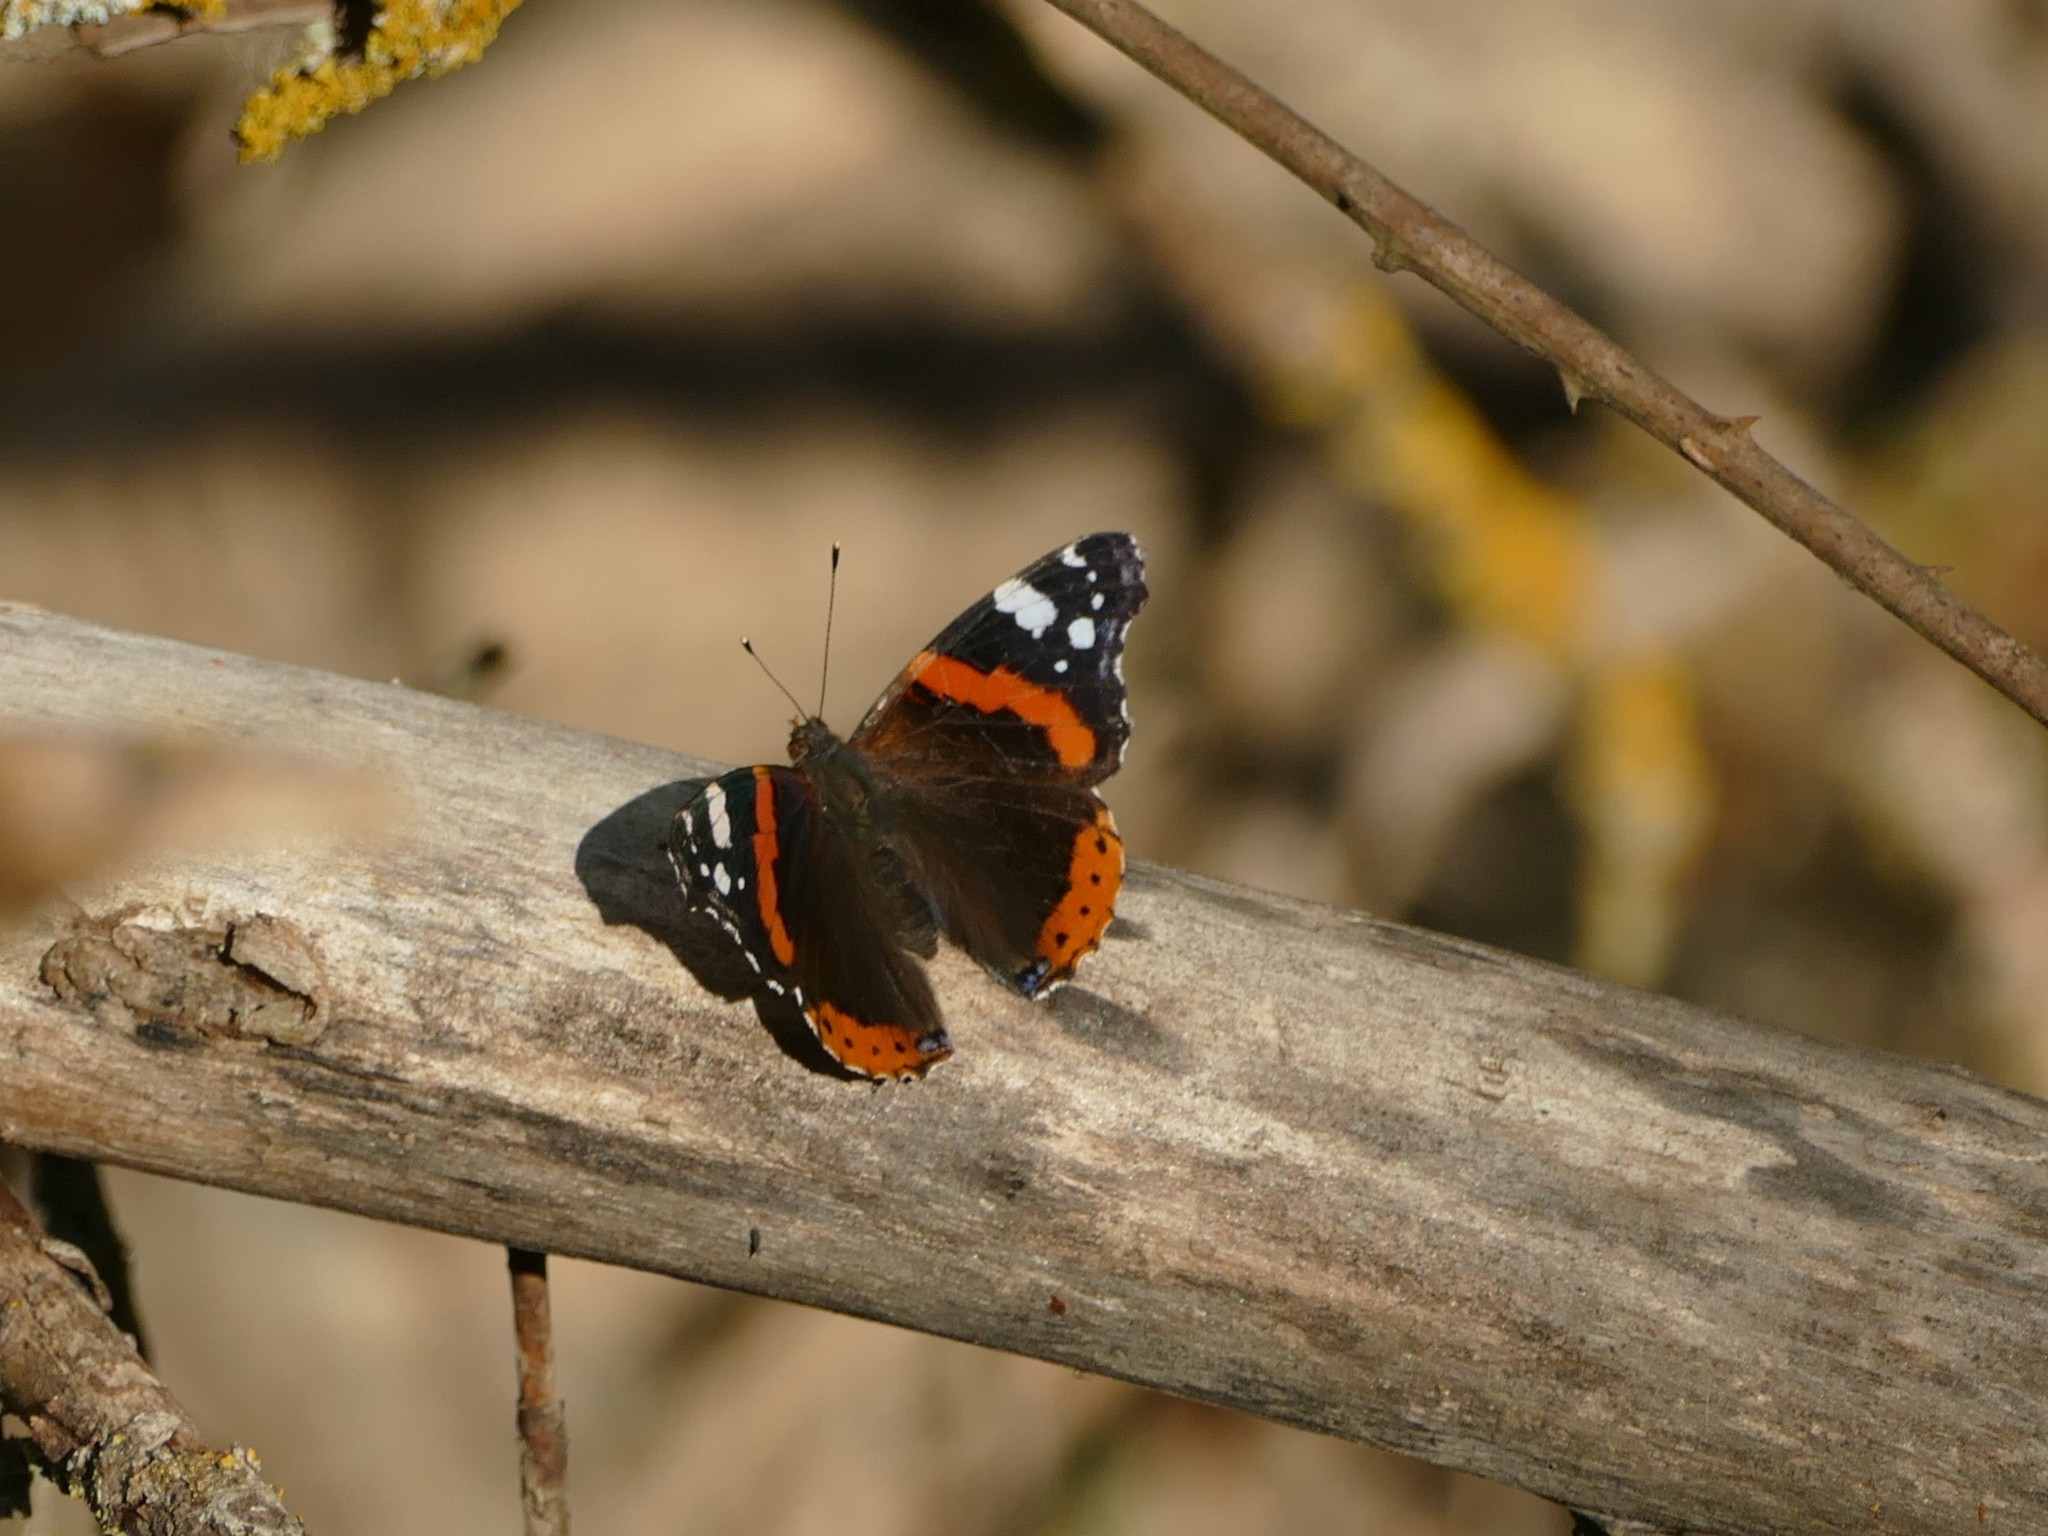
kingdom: Animalia
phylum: Arthropoda
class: Insecta
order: Lepidoptera
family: Nymphalidae
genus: Vanessa
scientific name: Vanessa atalanta
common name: Red admiral
